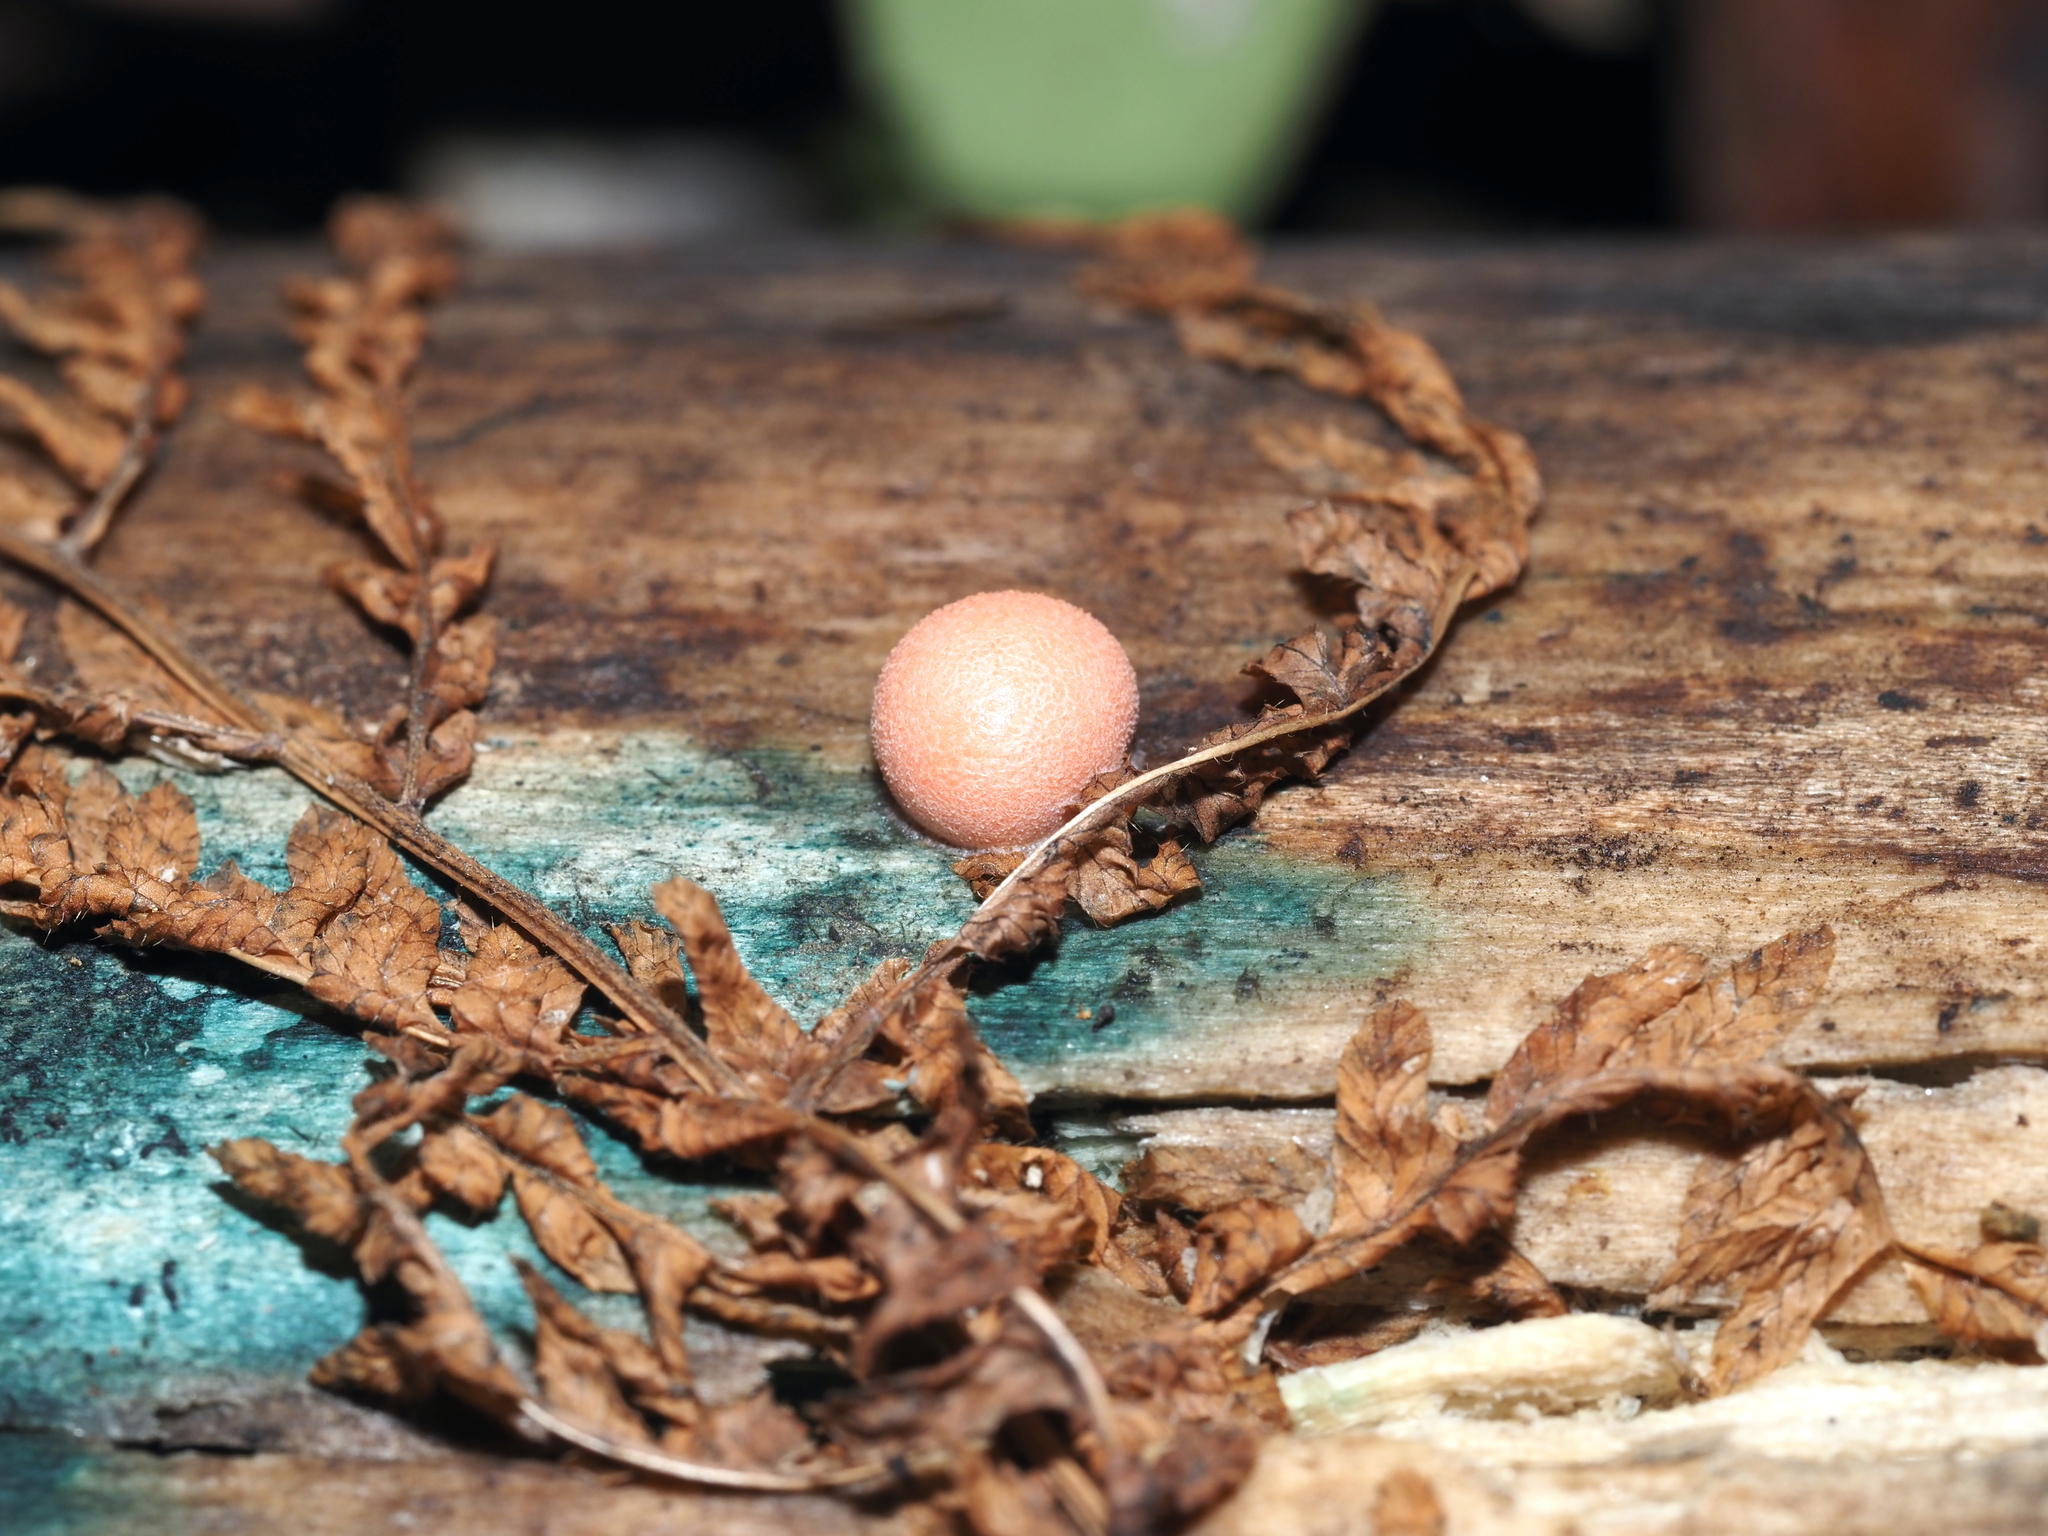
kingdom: Protozoa
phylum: Mycetozoa
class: Myxomycetes
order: Cribrariales
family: Tubiferaceae
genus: Lycogala
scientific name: Lycogala epidendrum
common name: Wolf's milk
